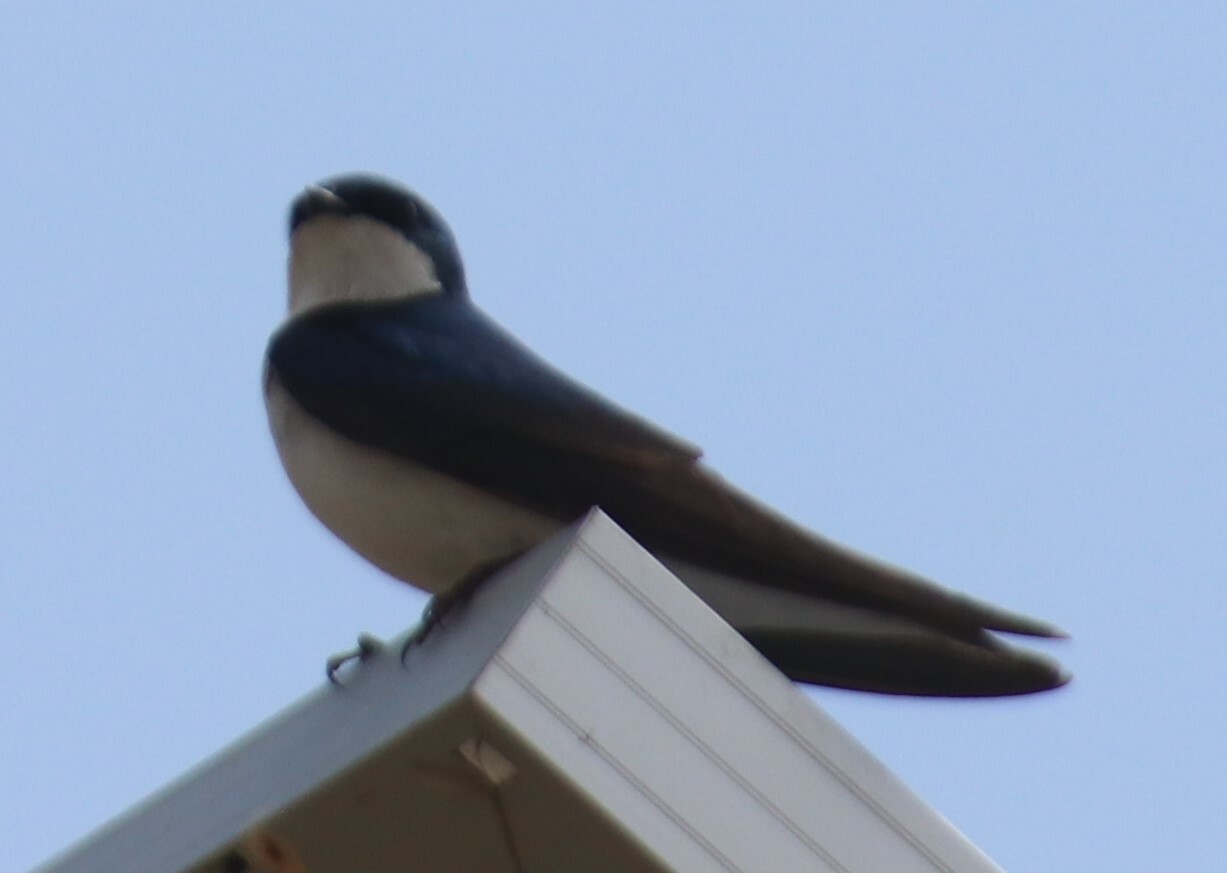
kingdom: Animalia
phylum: Chordata
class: Aves
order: Passeriformes
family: Hirundinidae
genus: Tachycineta
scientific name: Tachycineta bicolor
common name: Tree swallow
